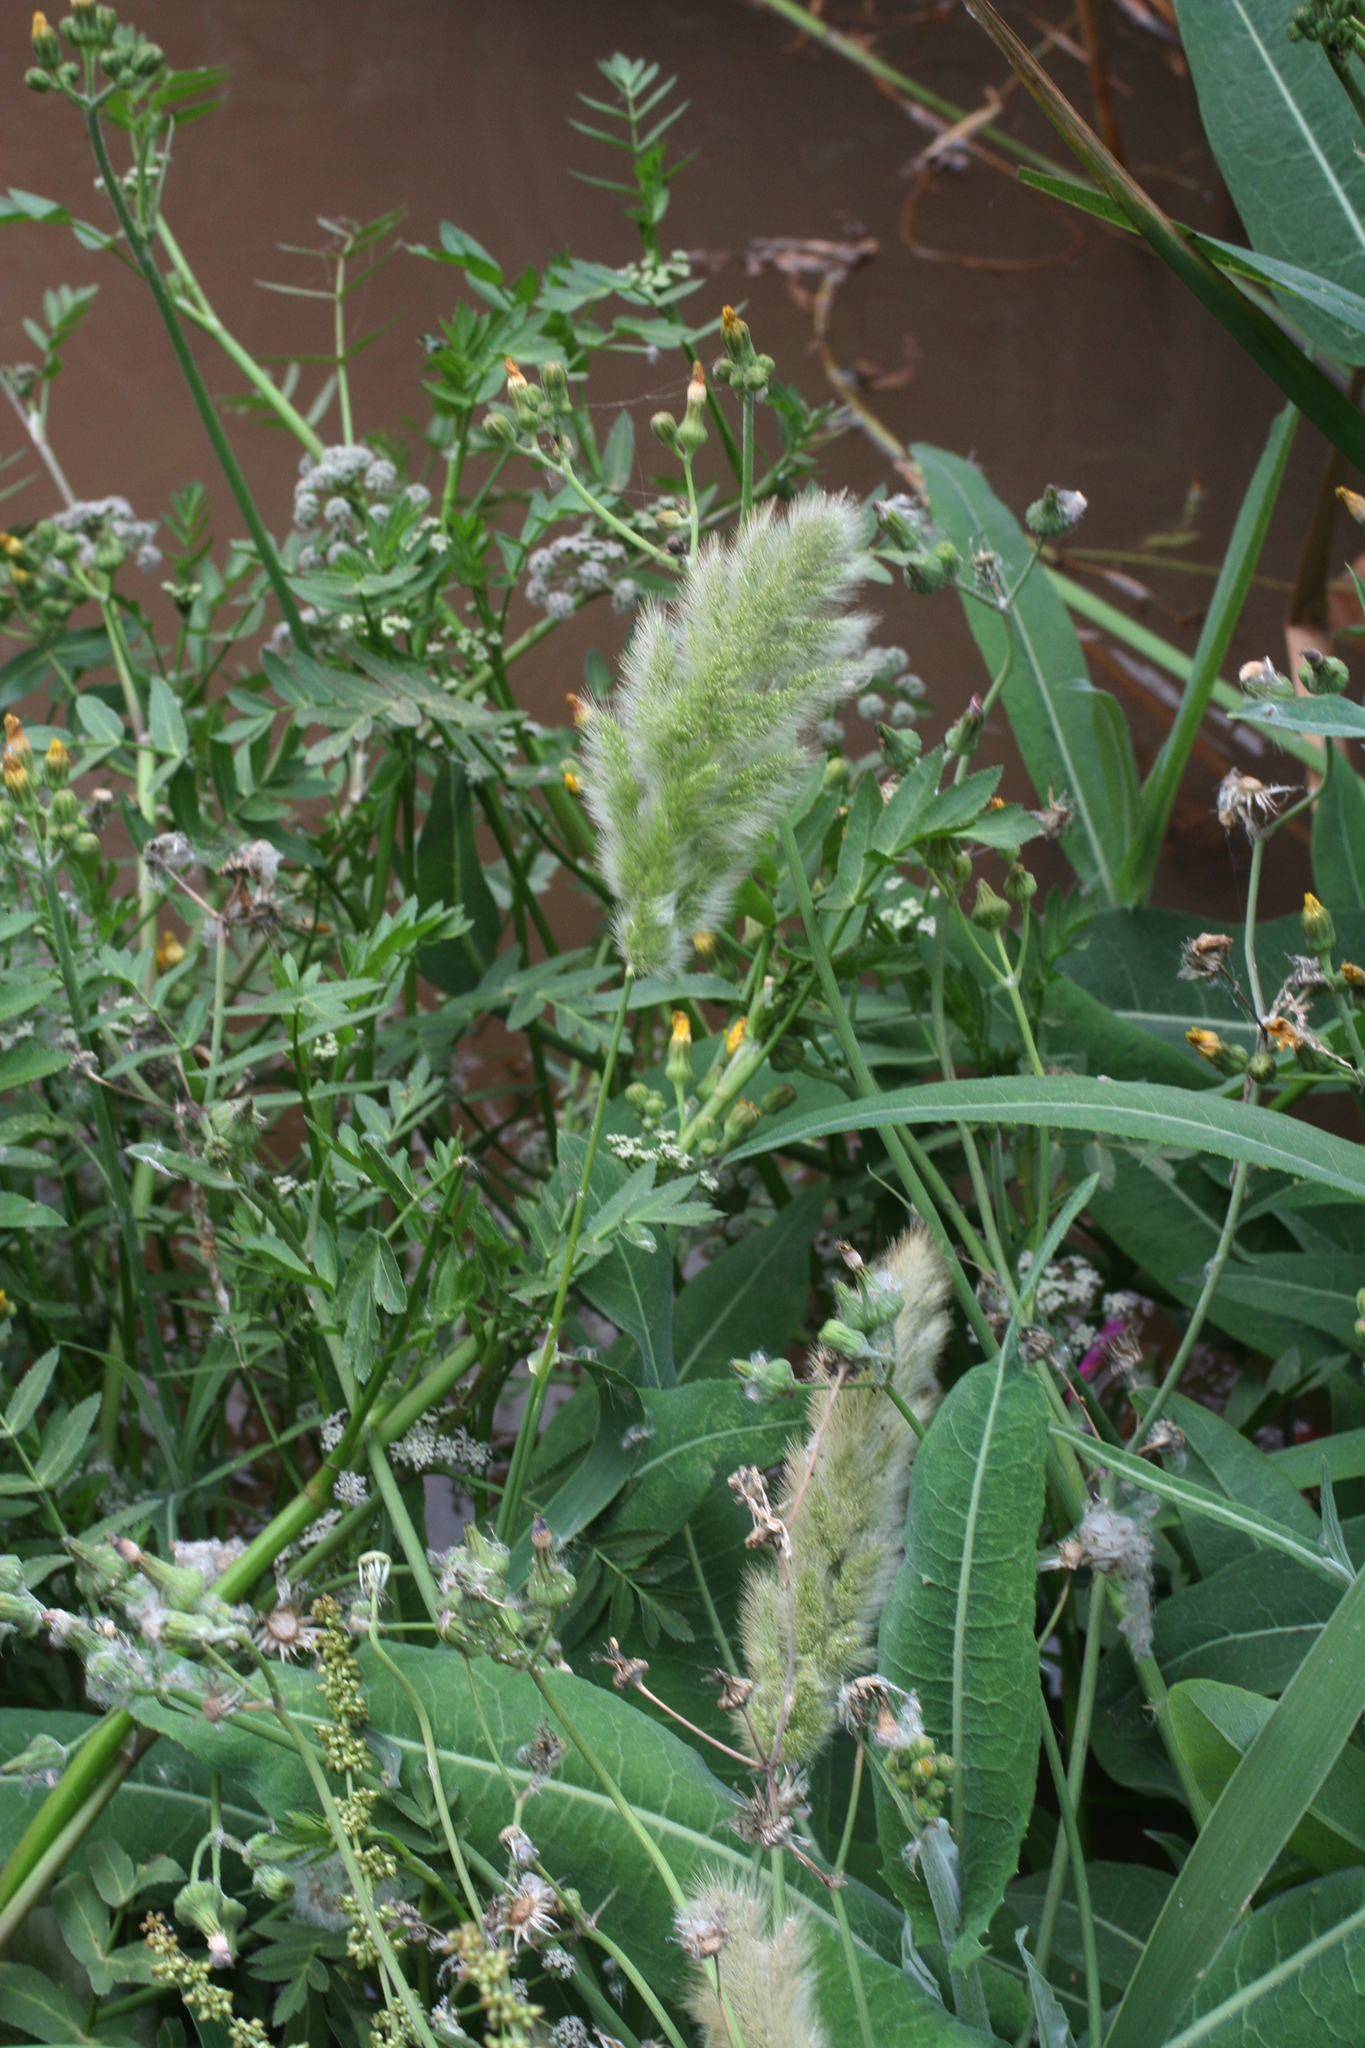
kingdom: Plantae
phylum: Tracheophyta
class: Liliopsida
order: Poales
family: Poaceae
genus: Polypogon
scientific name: Polypogon monspeliensis
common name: Annual rabbitsfoot grass
